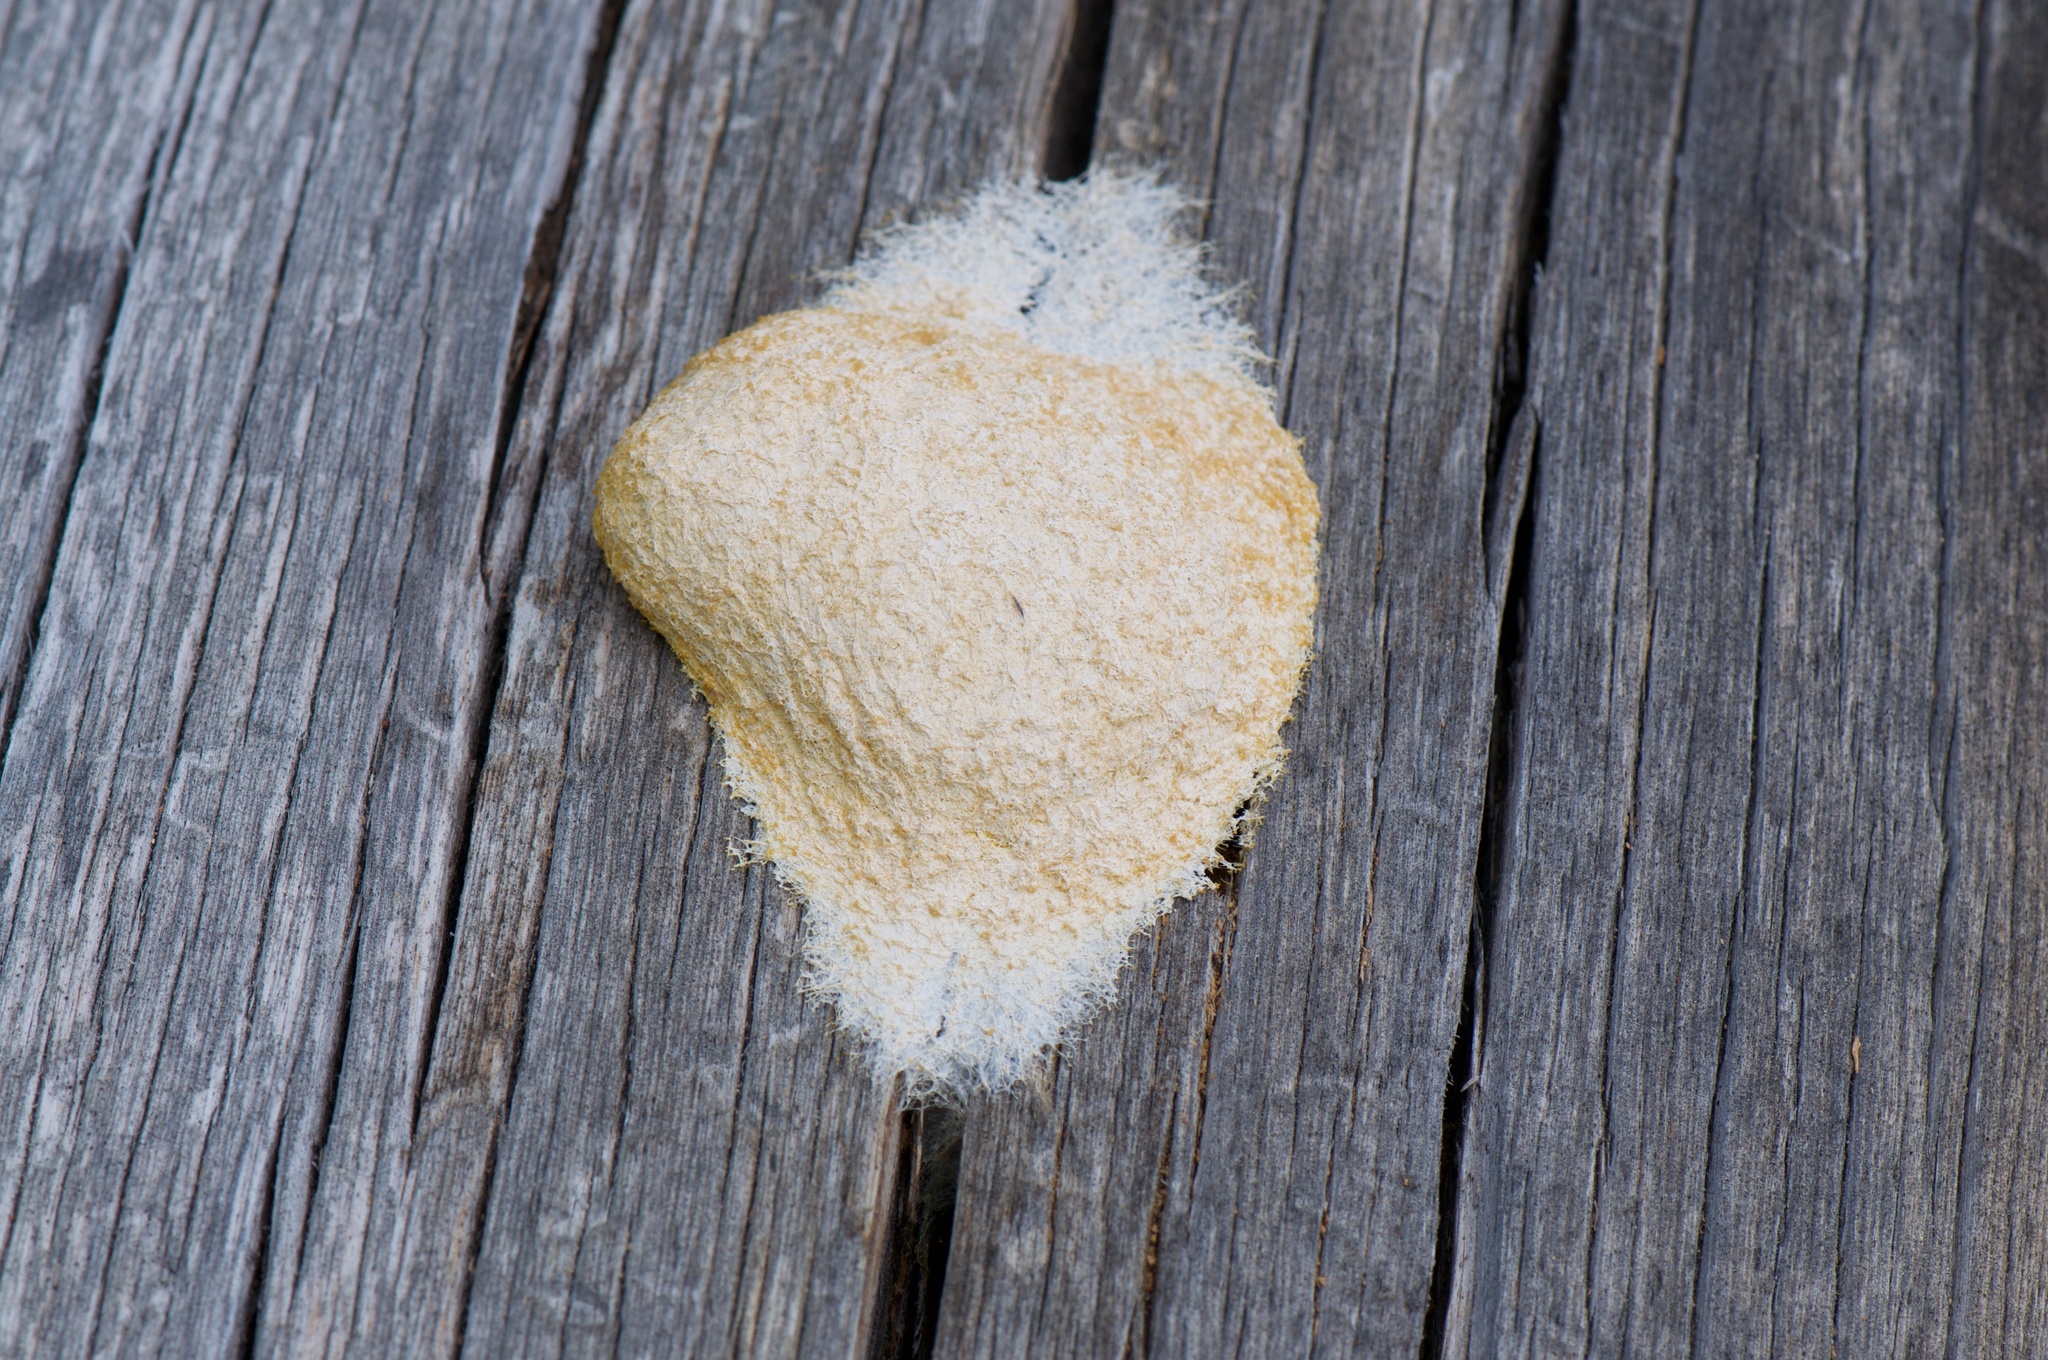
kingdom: Protozoa
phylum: Mycetozoa
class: Myxomycetes
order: Physarales
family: Physaraceae
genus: Fuligo
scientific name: Fuligo septica
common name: Dog vomit slime mold
